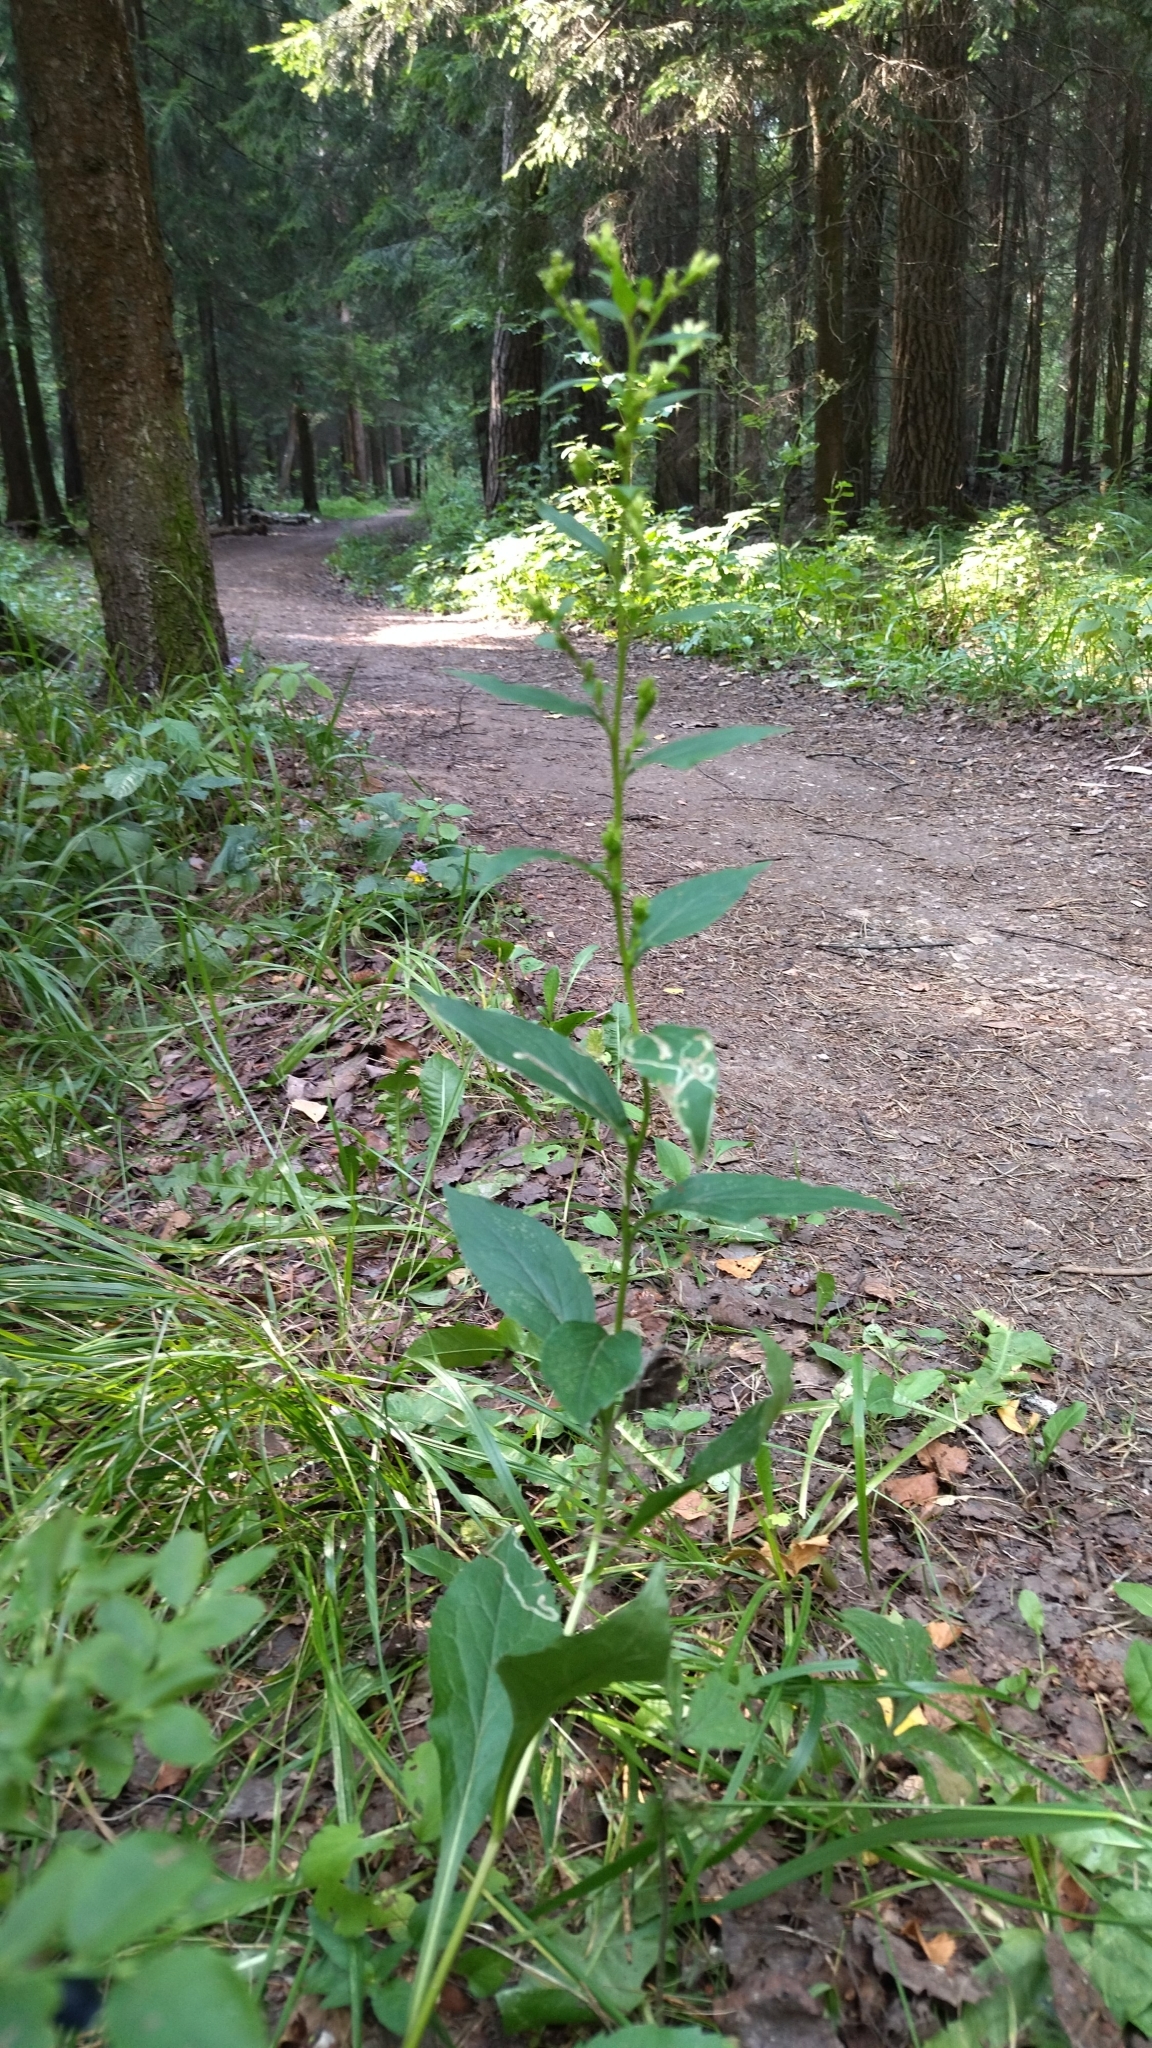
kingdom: Plantae
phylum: Tracheophyta
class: Magnoliopsida
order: Asterales
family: Asteraceae
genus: Solidago
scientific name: Solidago virgaurea
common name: Goldenrod
